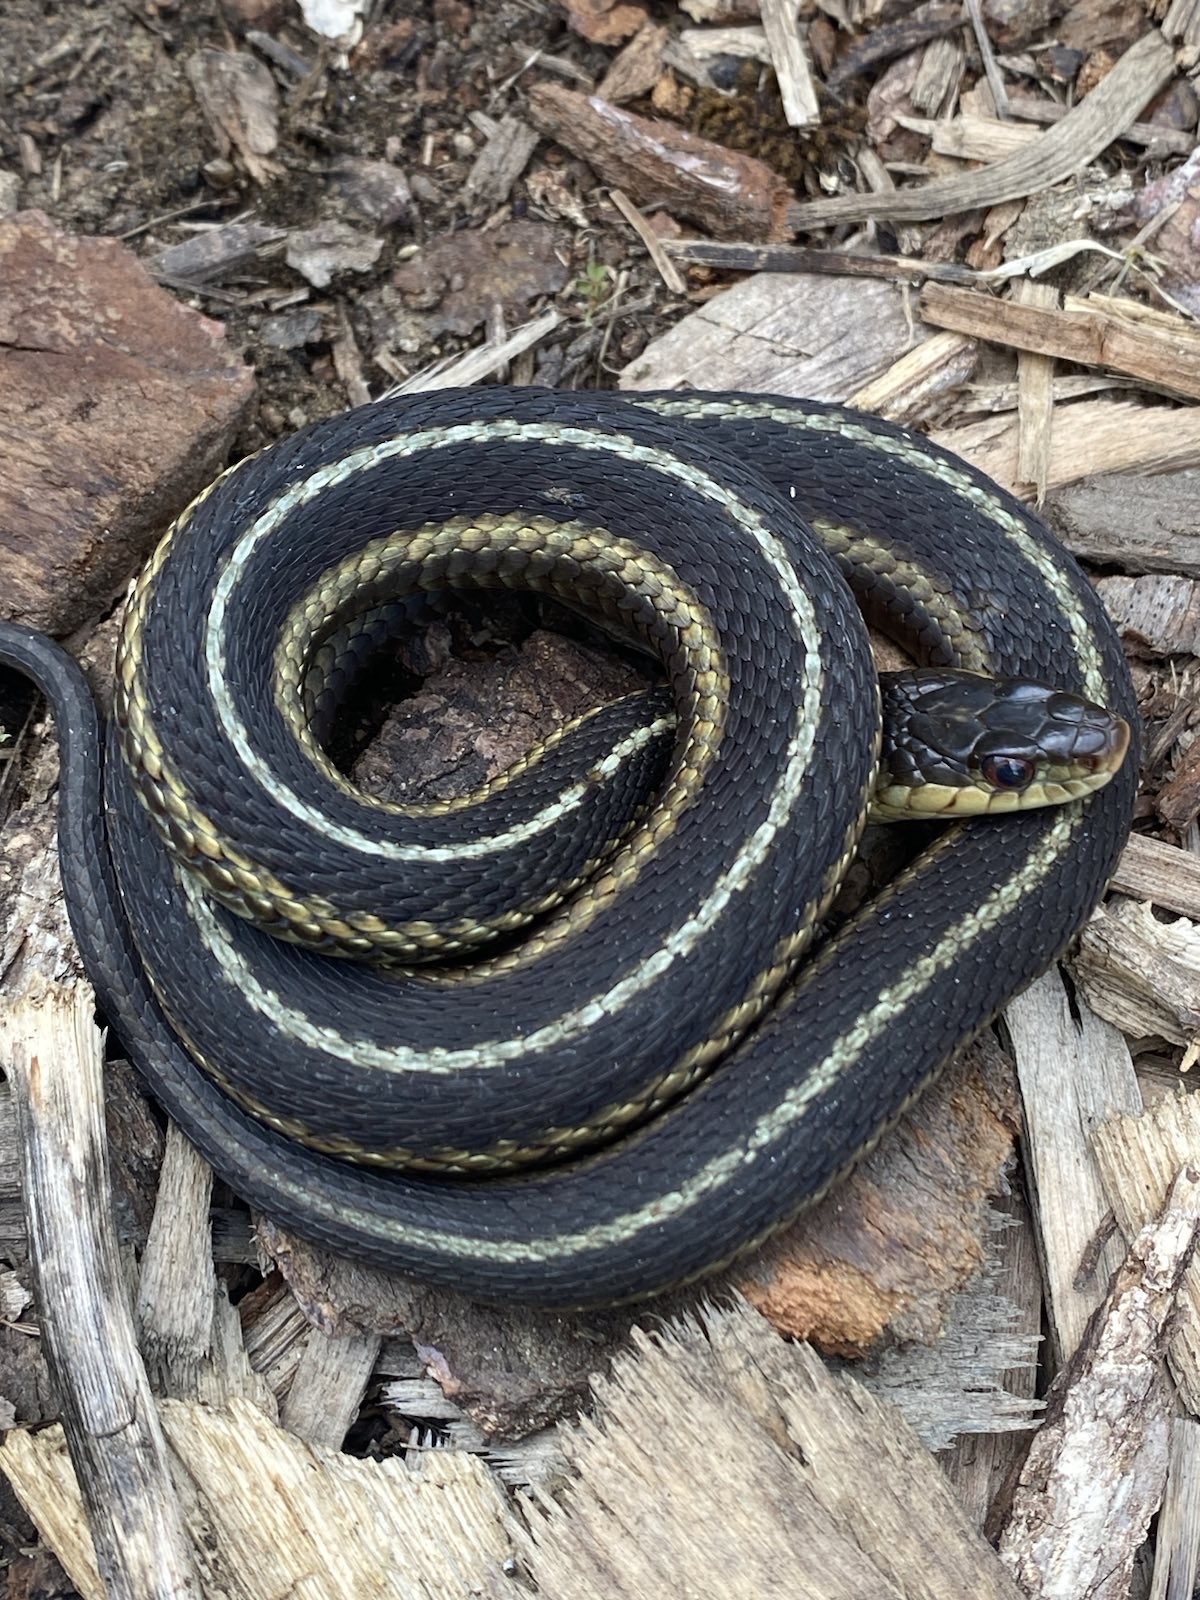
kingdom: Animalia
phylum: Chordata
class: Squamata
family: Colubridae
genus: Thamnophis
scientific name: Thamnophis sirtalis
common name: Common garter snake
